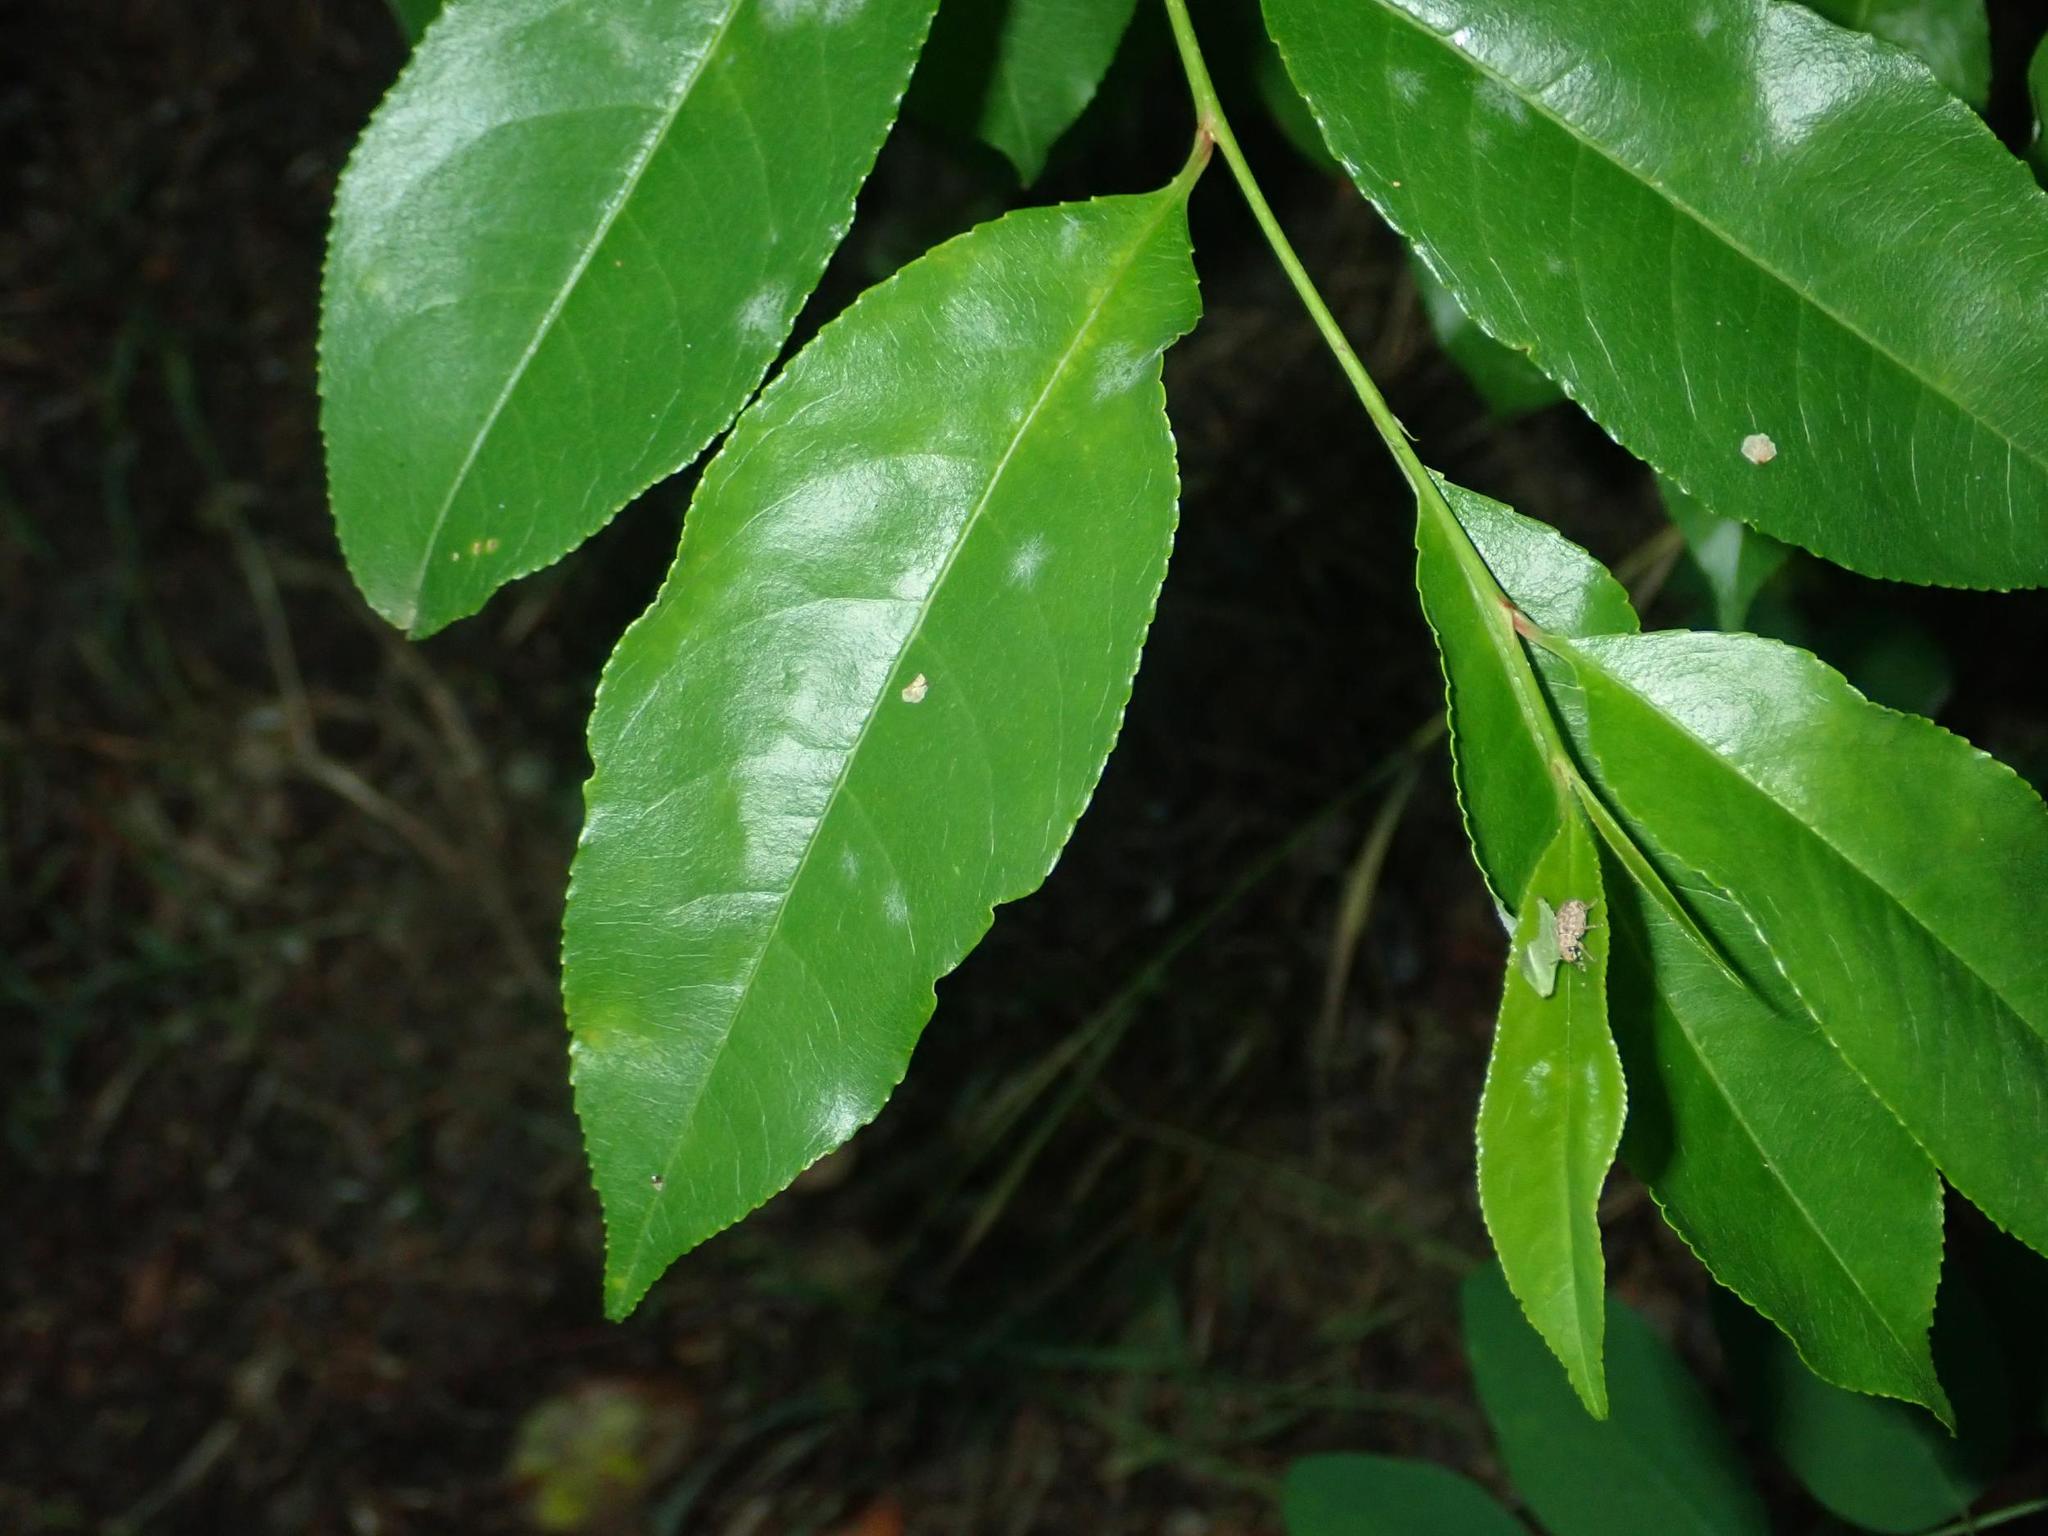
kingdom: Plantae
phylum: Tracheophyta
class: Magnoliopsida
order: Rosales
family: Rosaceae
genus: Prunus
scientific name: Prunus serotina
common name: Black cherry
